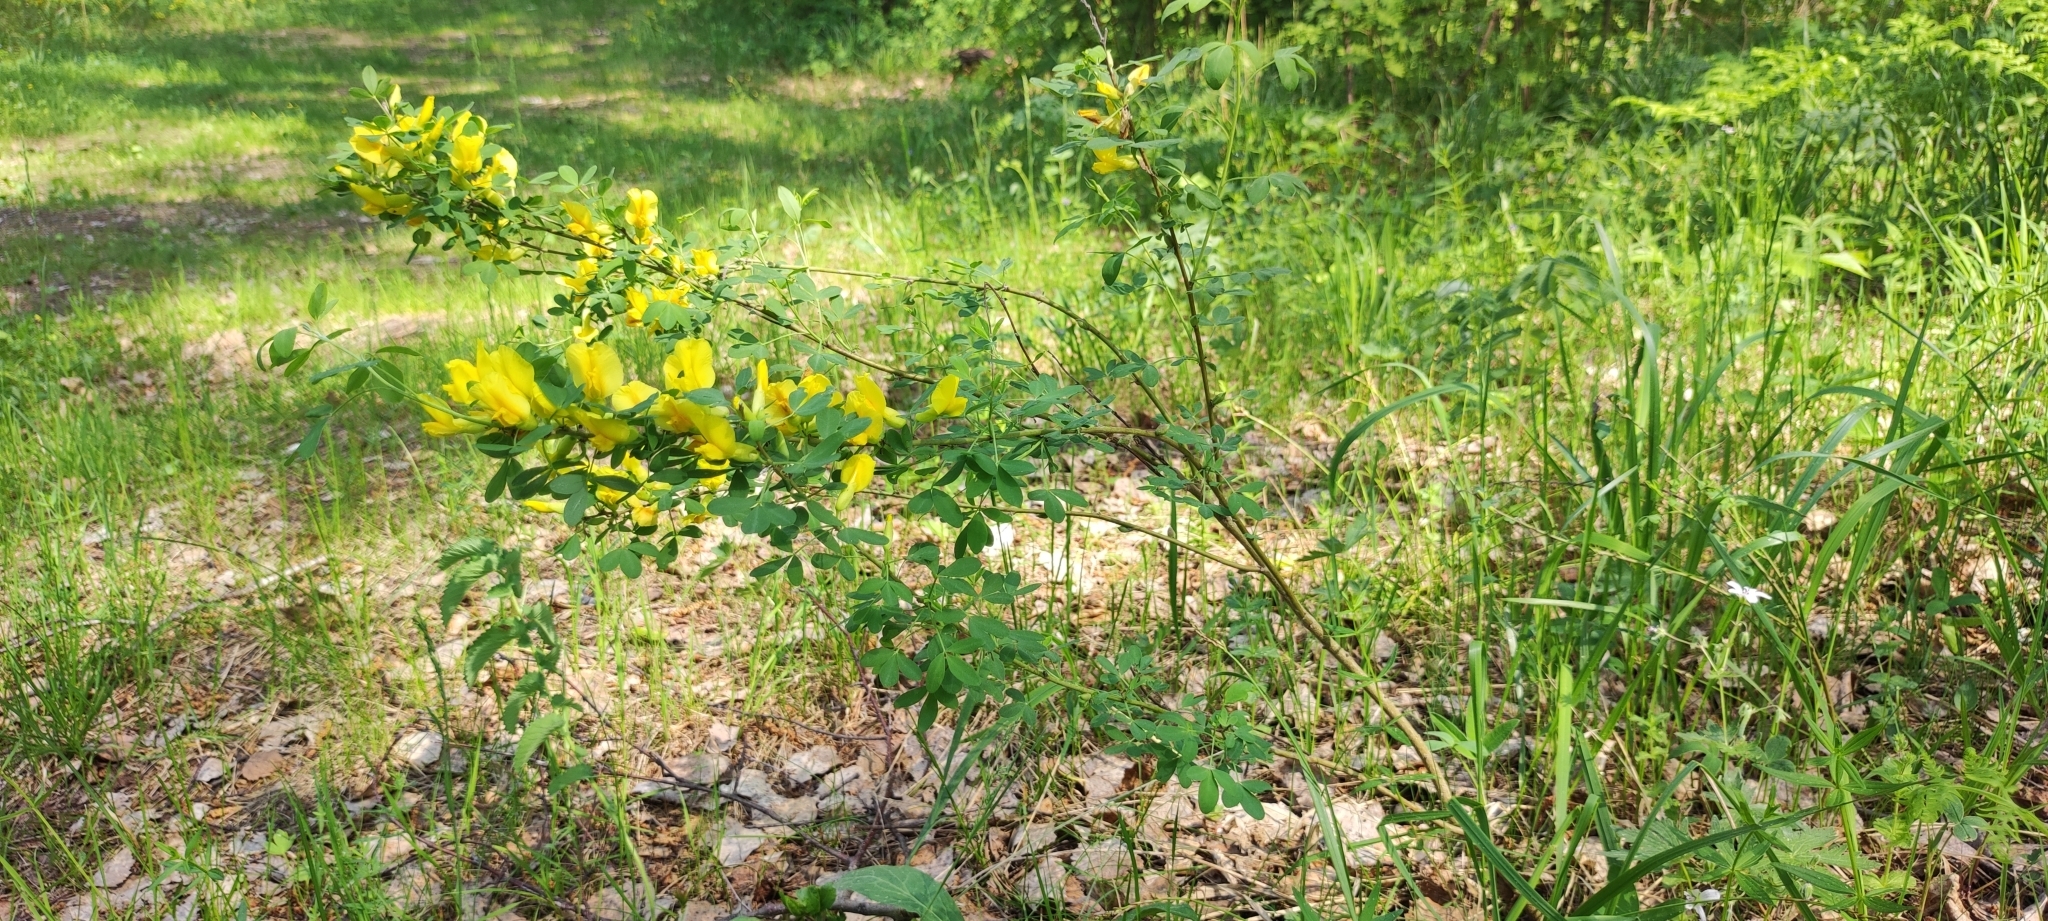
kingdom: Plantae
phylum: Tracheophyta
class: Magnoliopsida
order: Fabales
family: Fabaceae
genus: Chamaecytisus
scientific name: Chamaecytisus ruthenicus
